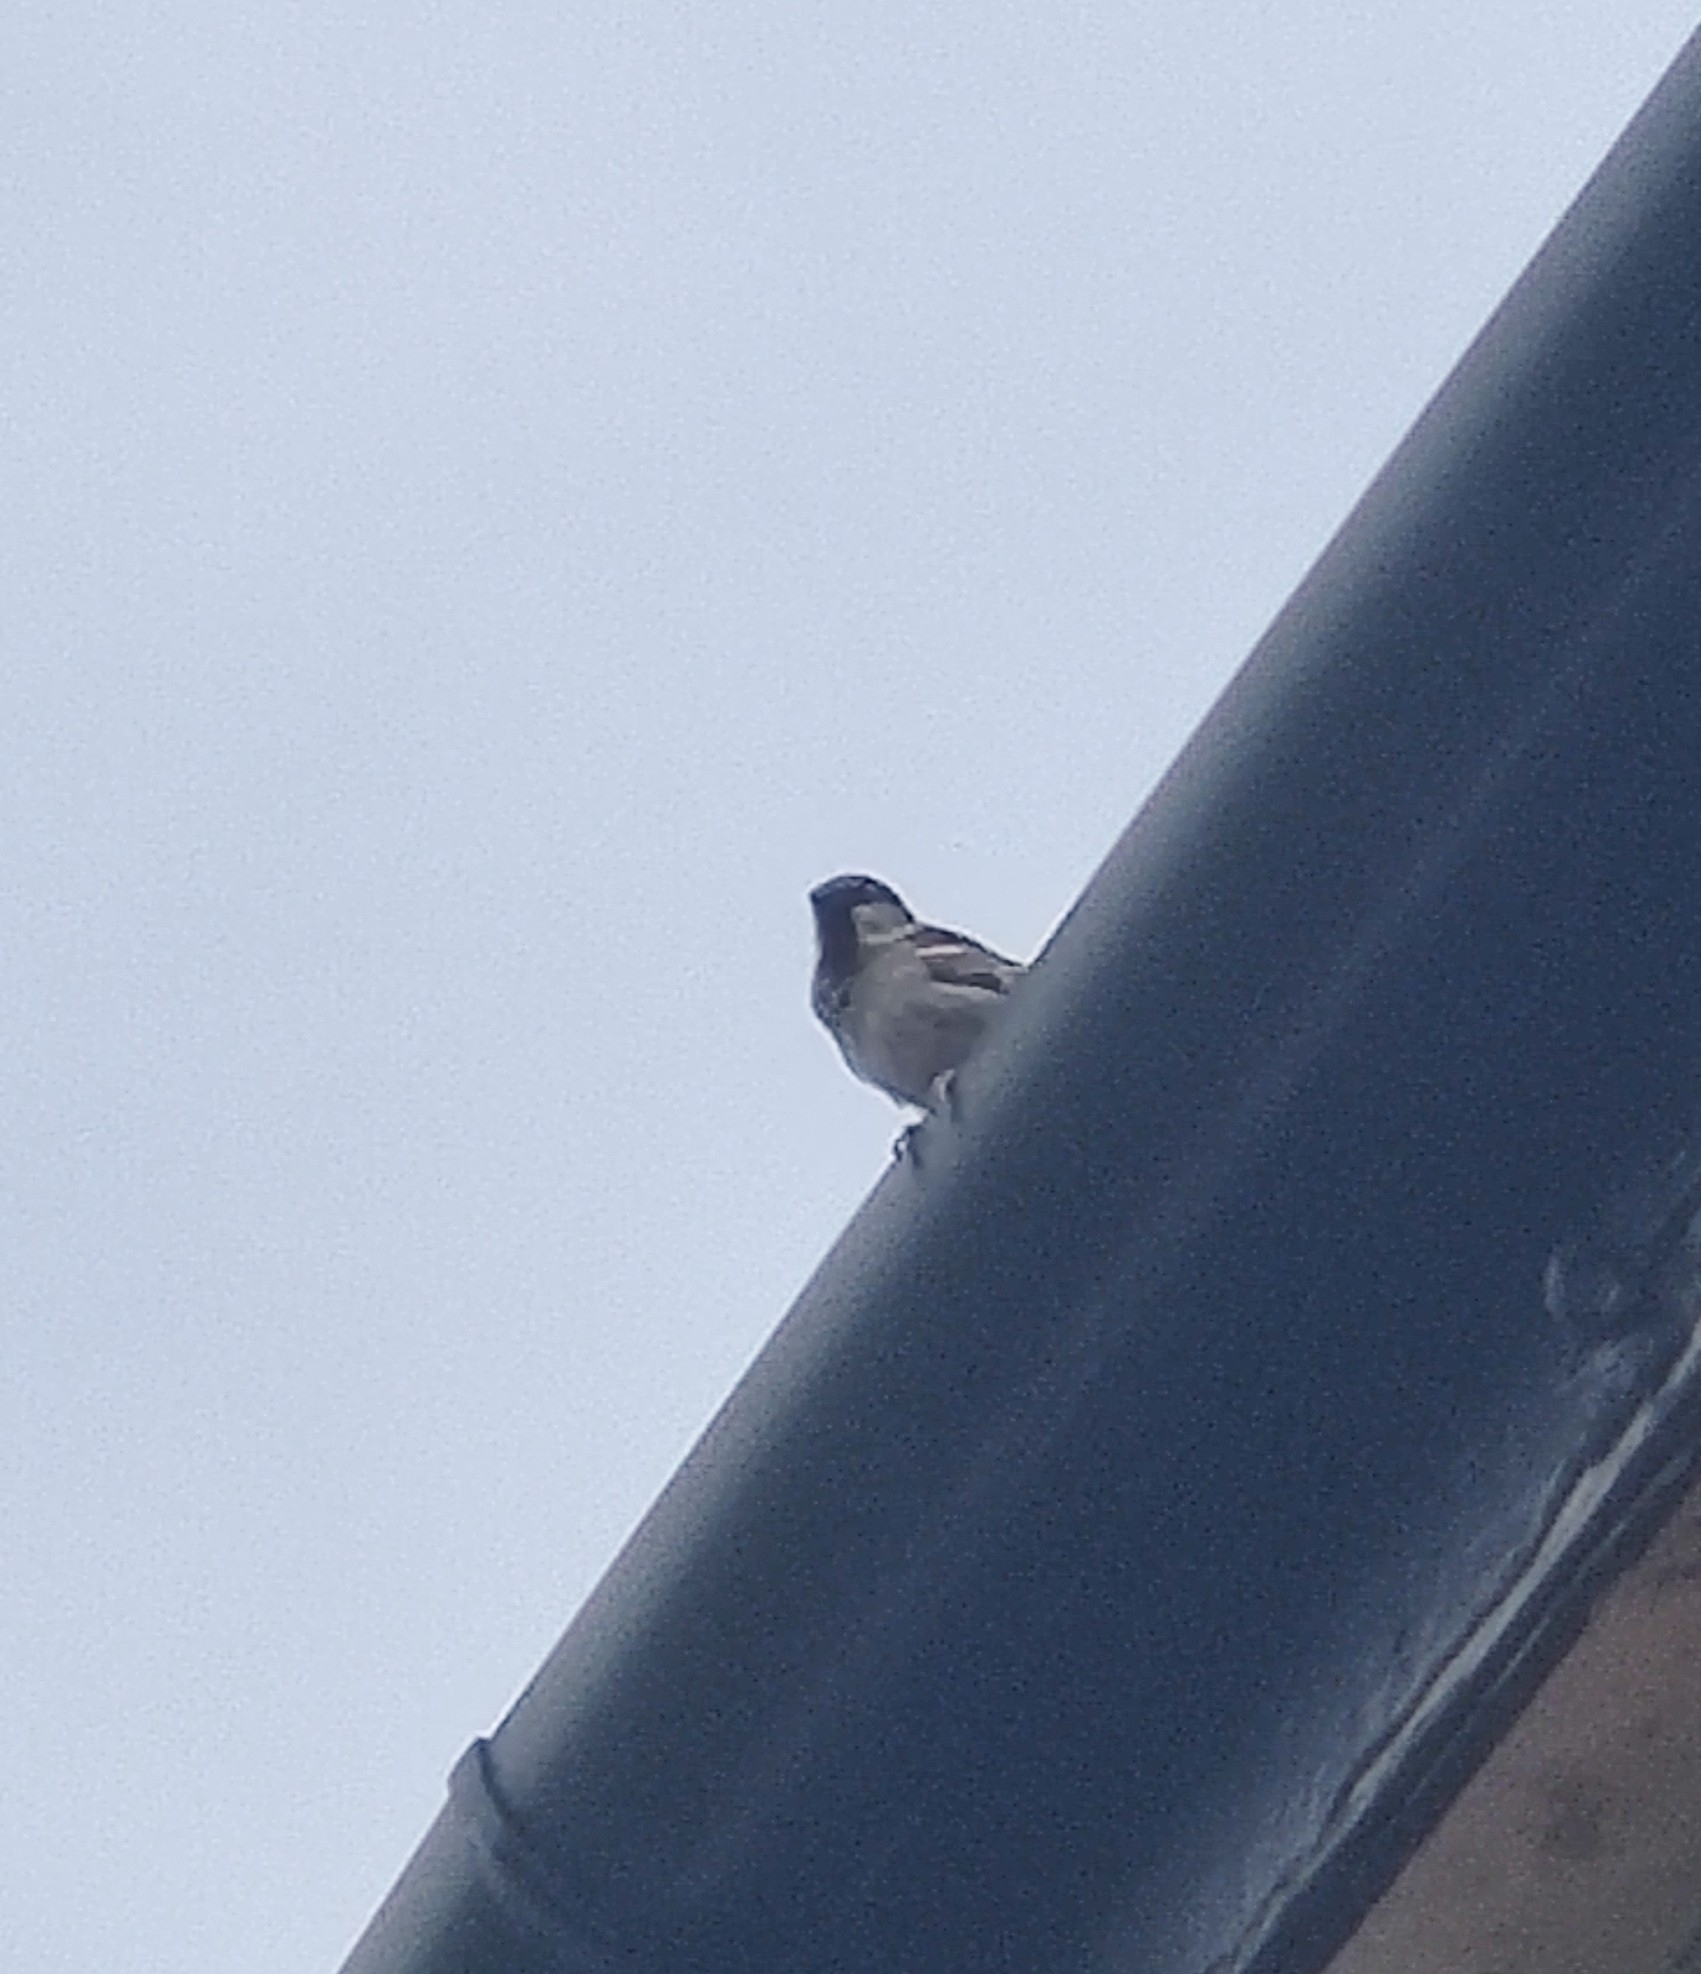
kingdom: Animalia
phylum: Chordata
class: Aves
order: Passeriformes
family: Passeridae
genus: Passer
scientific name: Passer domesticus
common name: House sparrow
